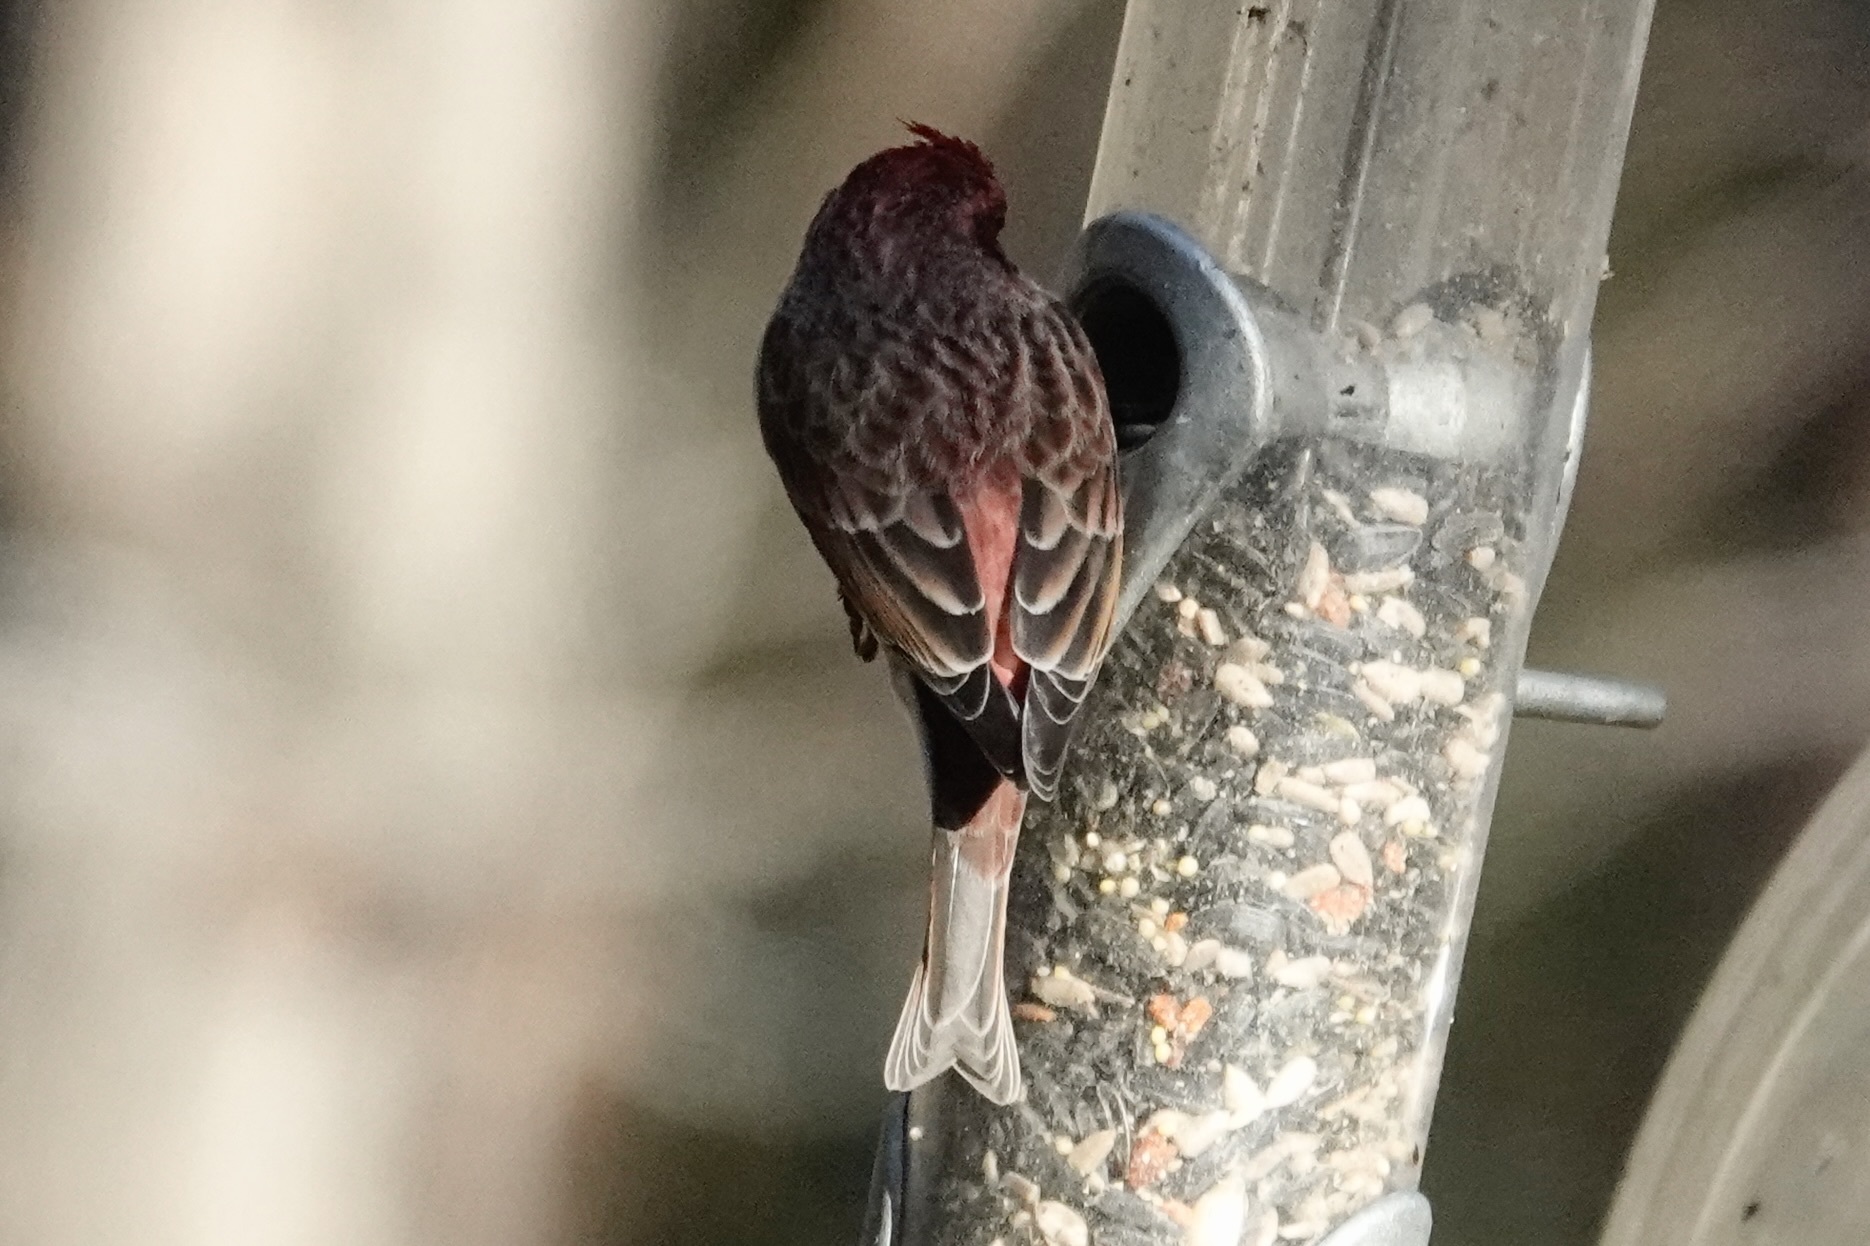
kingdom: Animalia
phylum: Chordata
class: Aves
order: Passeriformes
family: Fringillidae
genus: Haemorhous
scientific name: Haemorhous purpureus
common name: Purple finch
